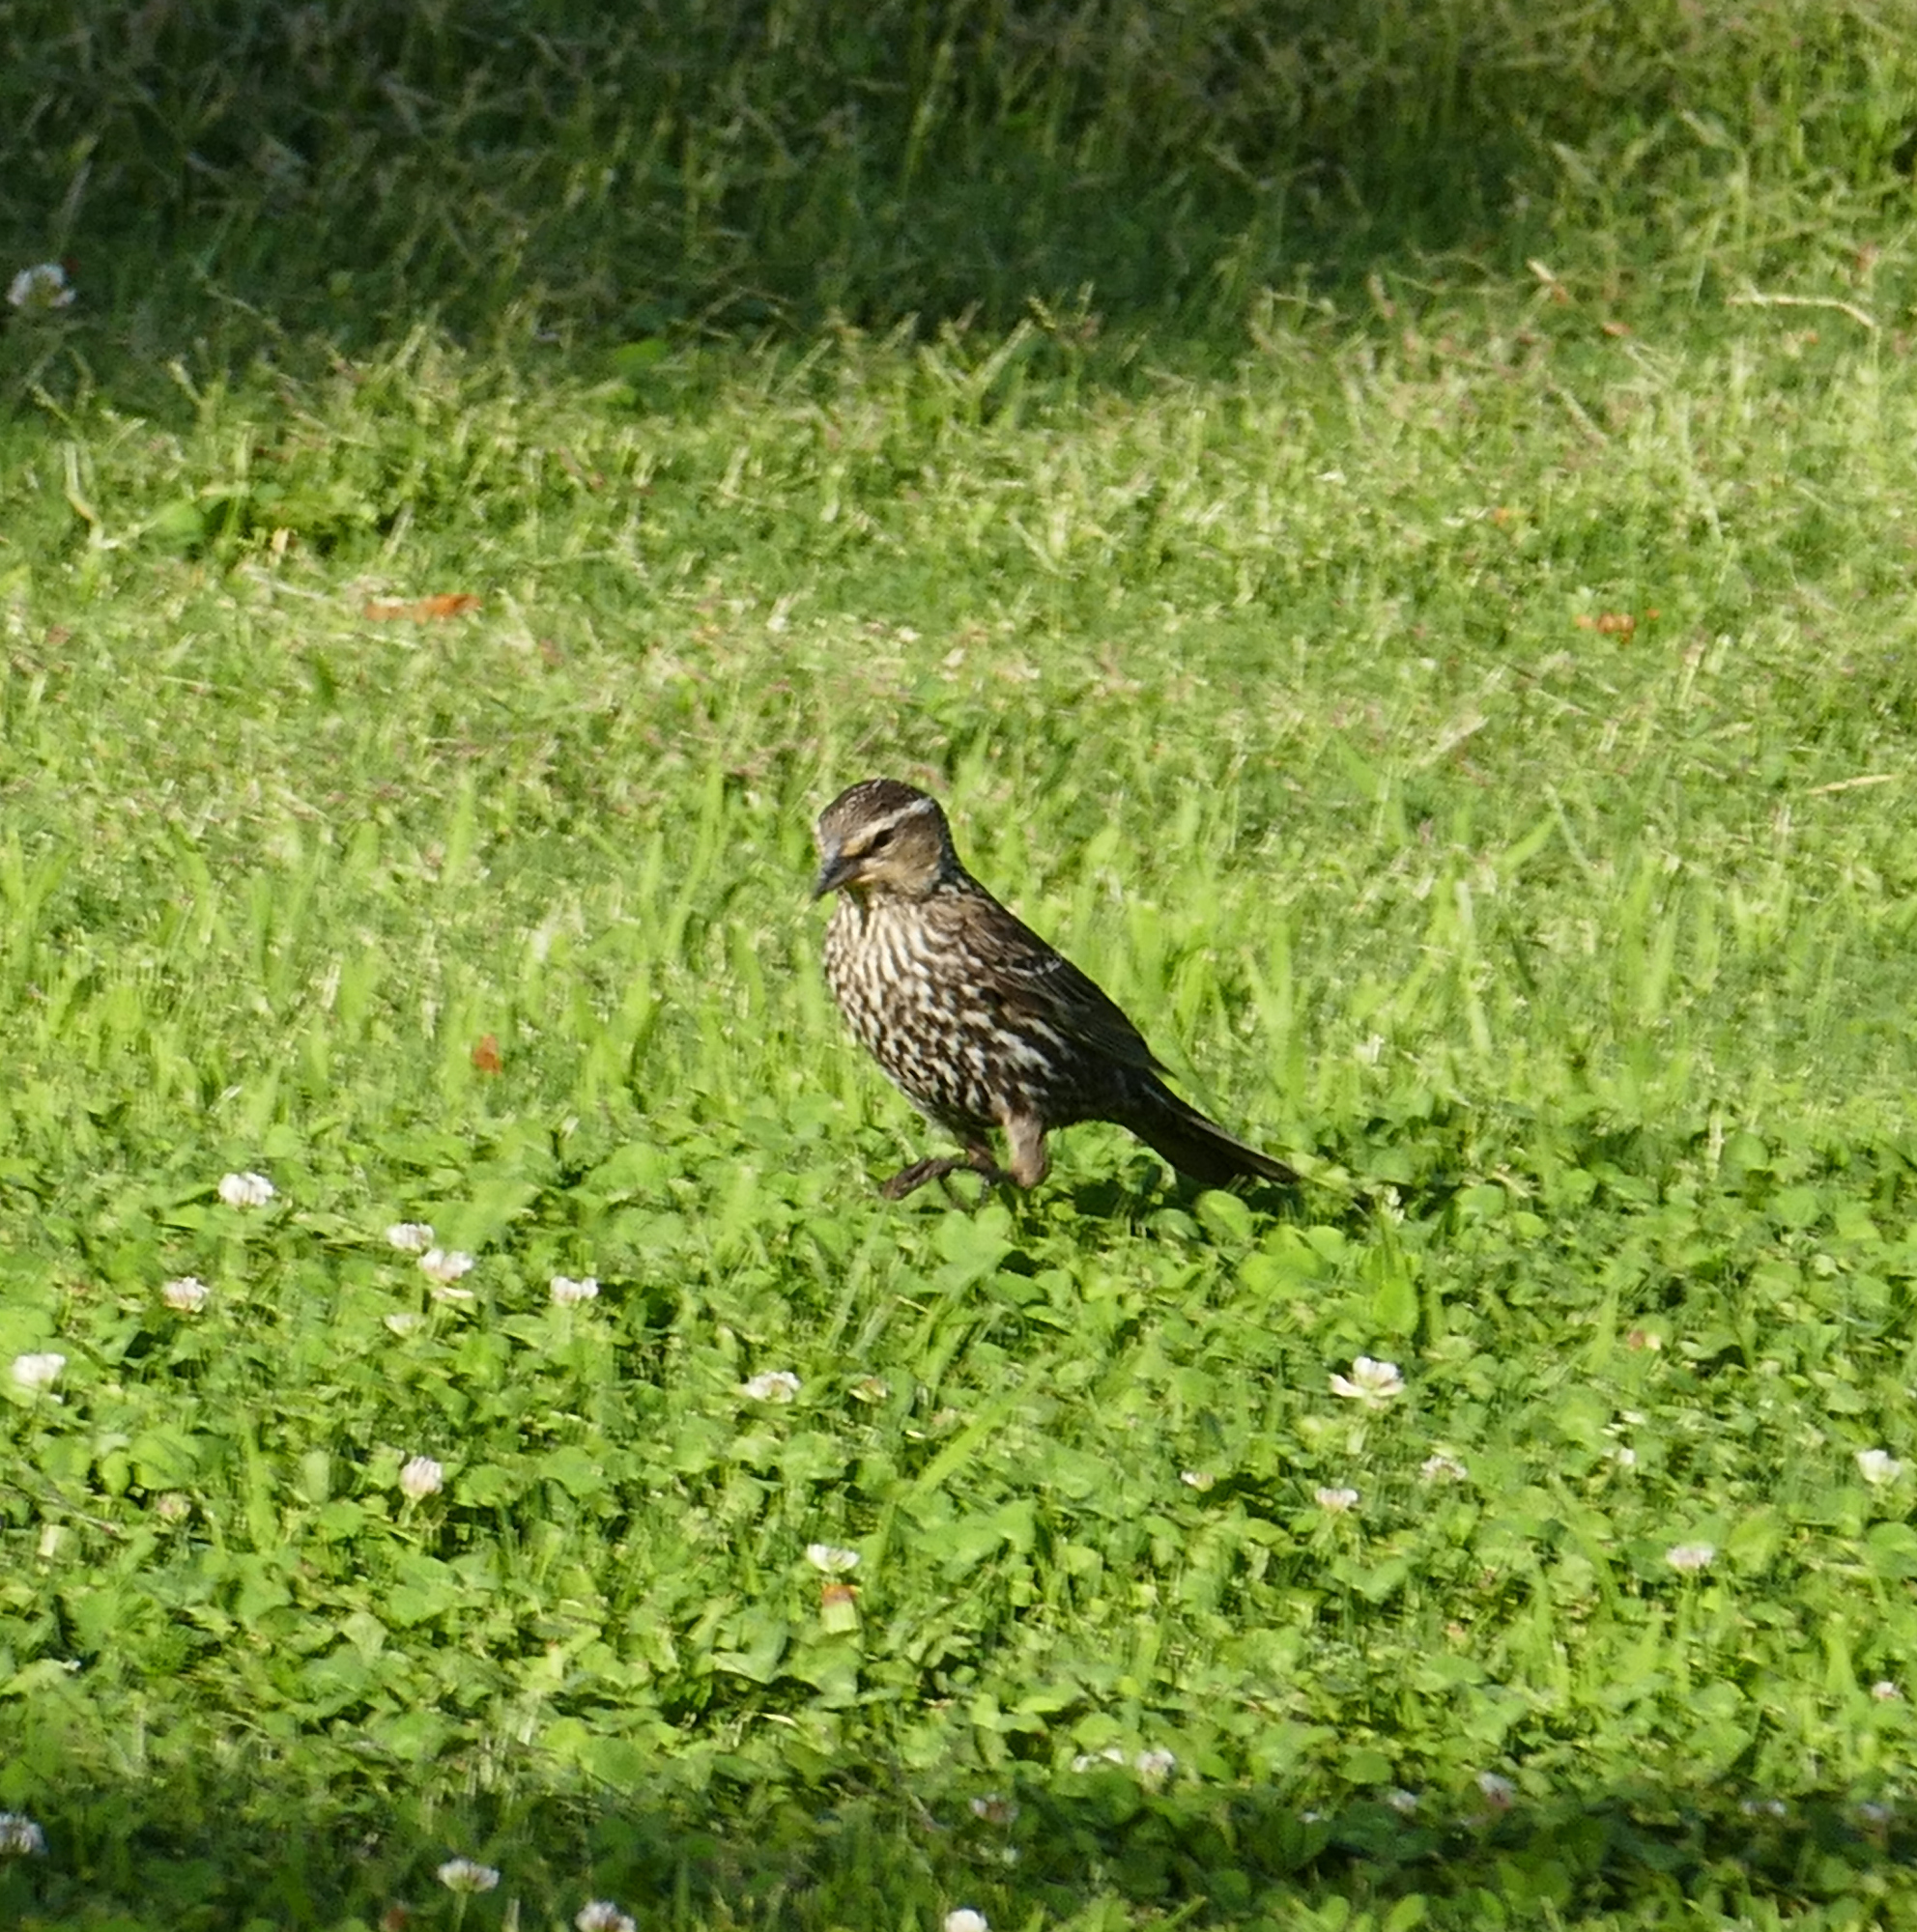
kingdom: Animalia
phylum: Chordata
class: Aves
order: Passeriformes
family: Icteridae
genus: Agelaius
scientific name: Agelaius phoeniceus
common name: Red-winged blackbird
